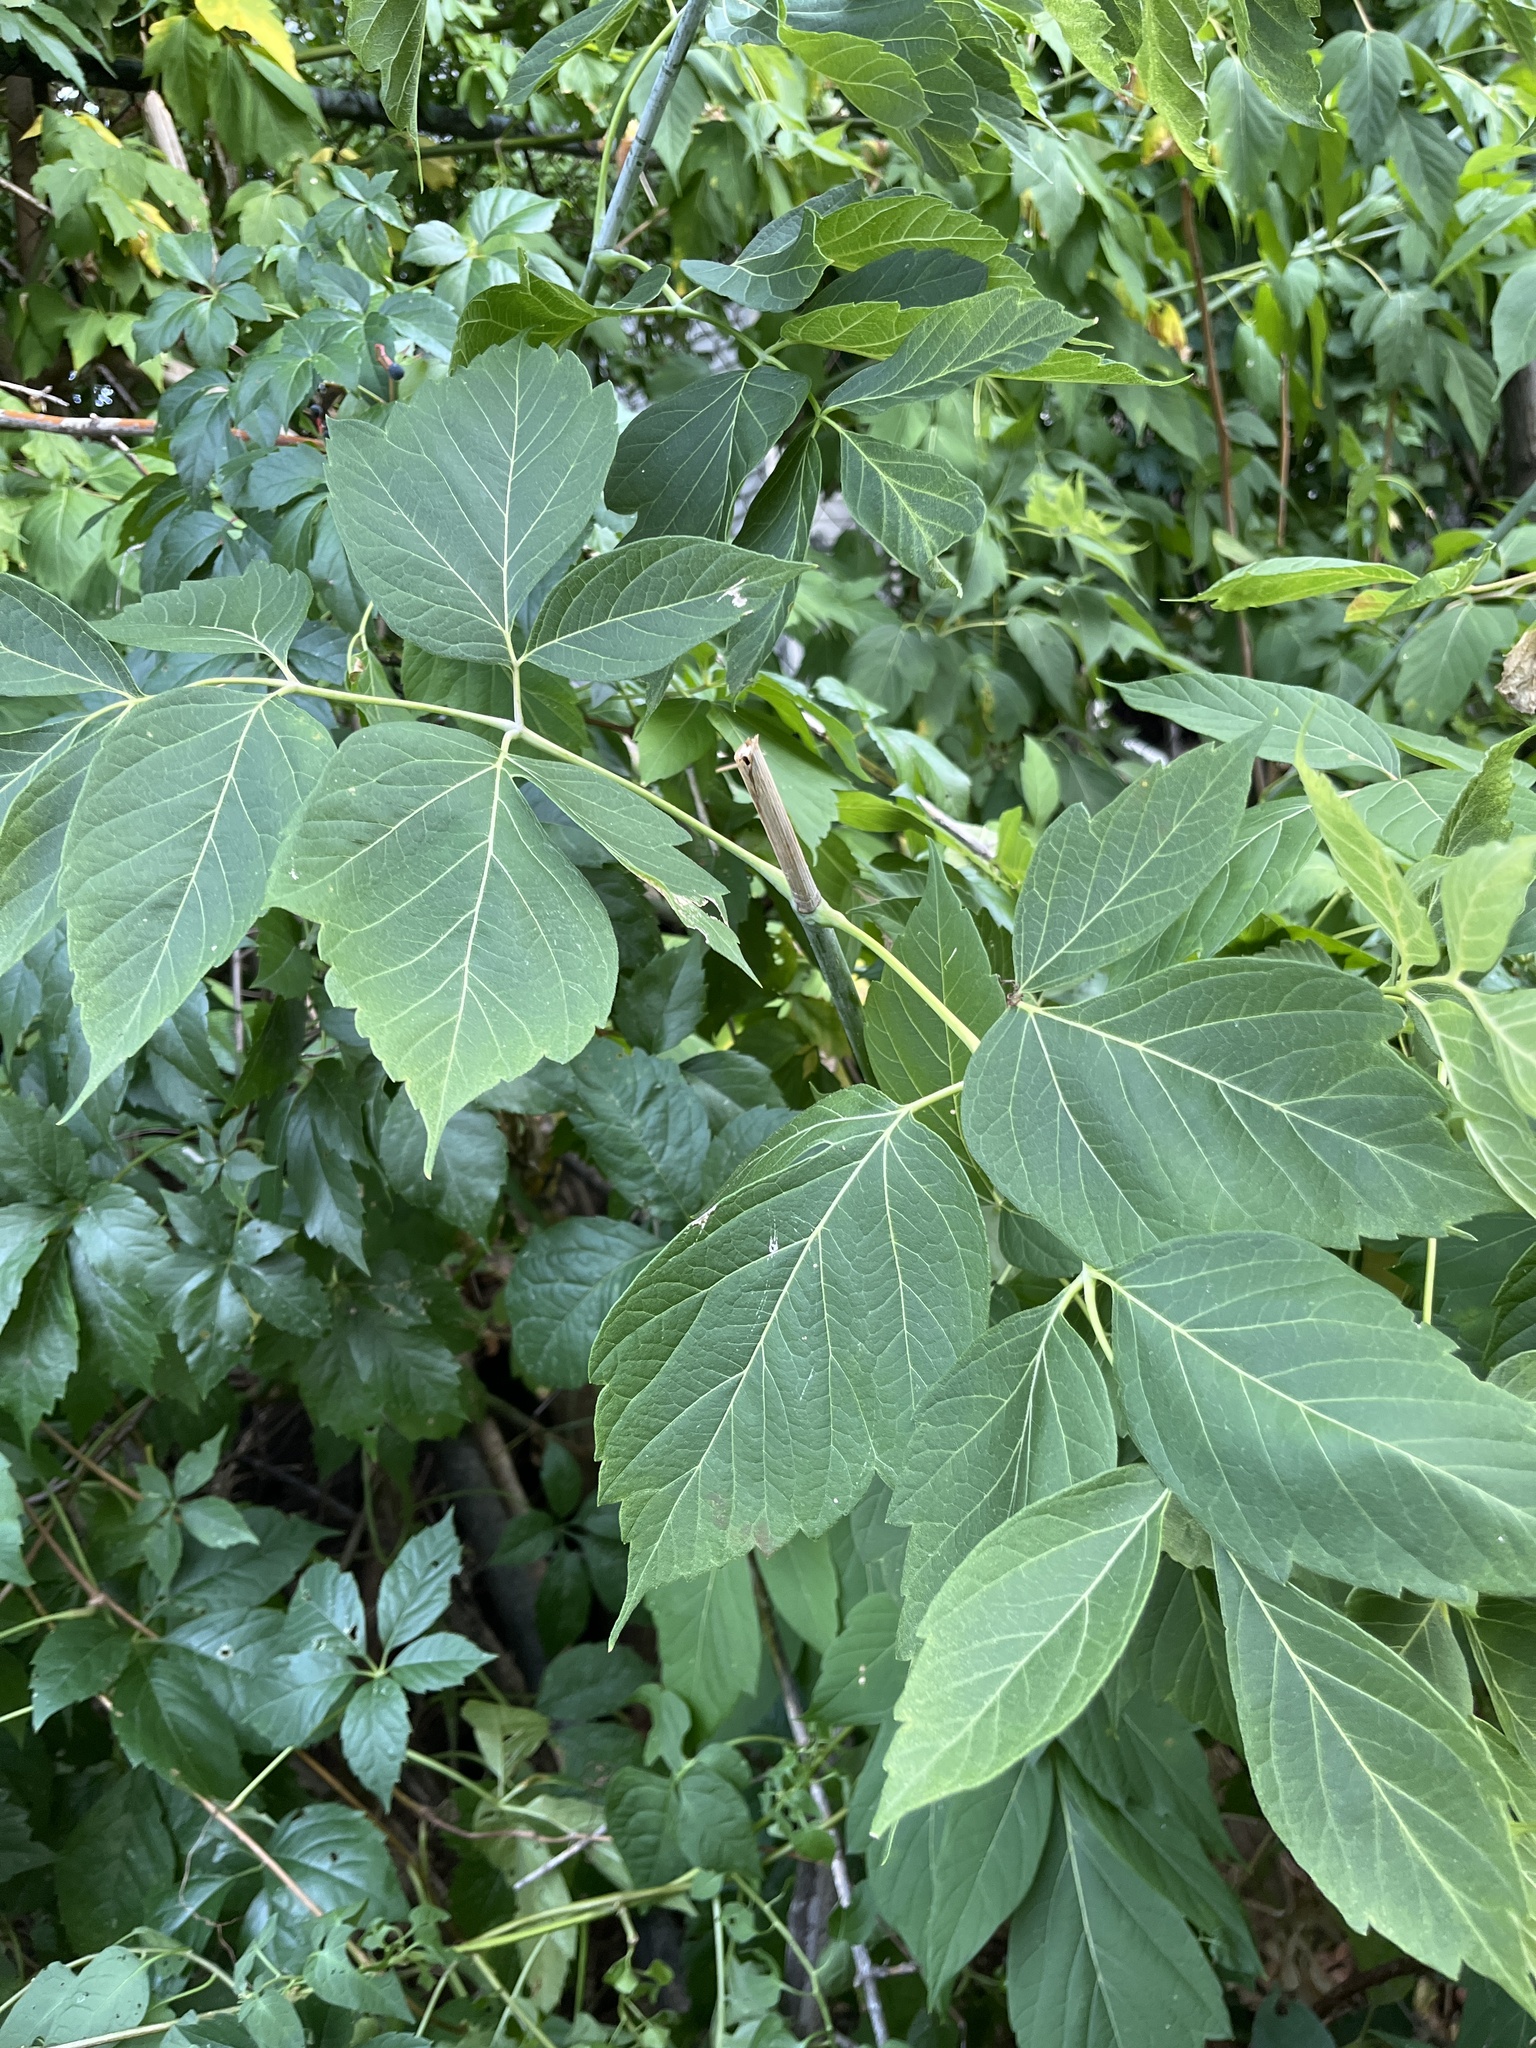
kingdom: Plantae
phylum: Tracheophyta
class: Magnoliopsida
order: Sapindales
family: Sapindaceae
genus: Acer
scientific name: Acer negundo
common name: Ashleaf maple
